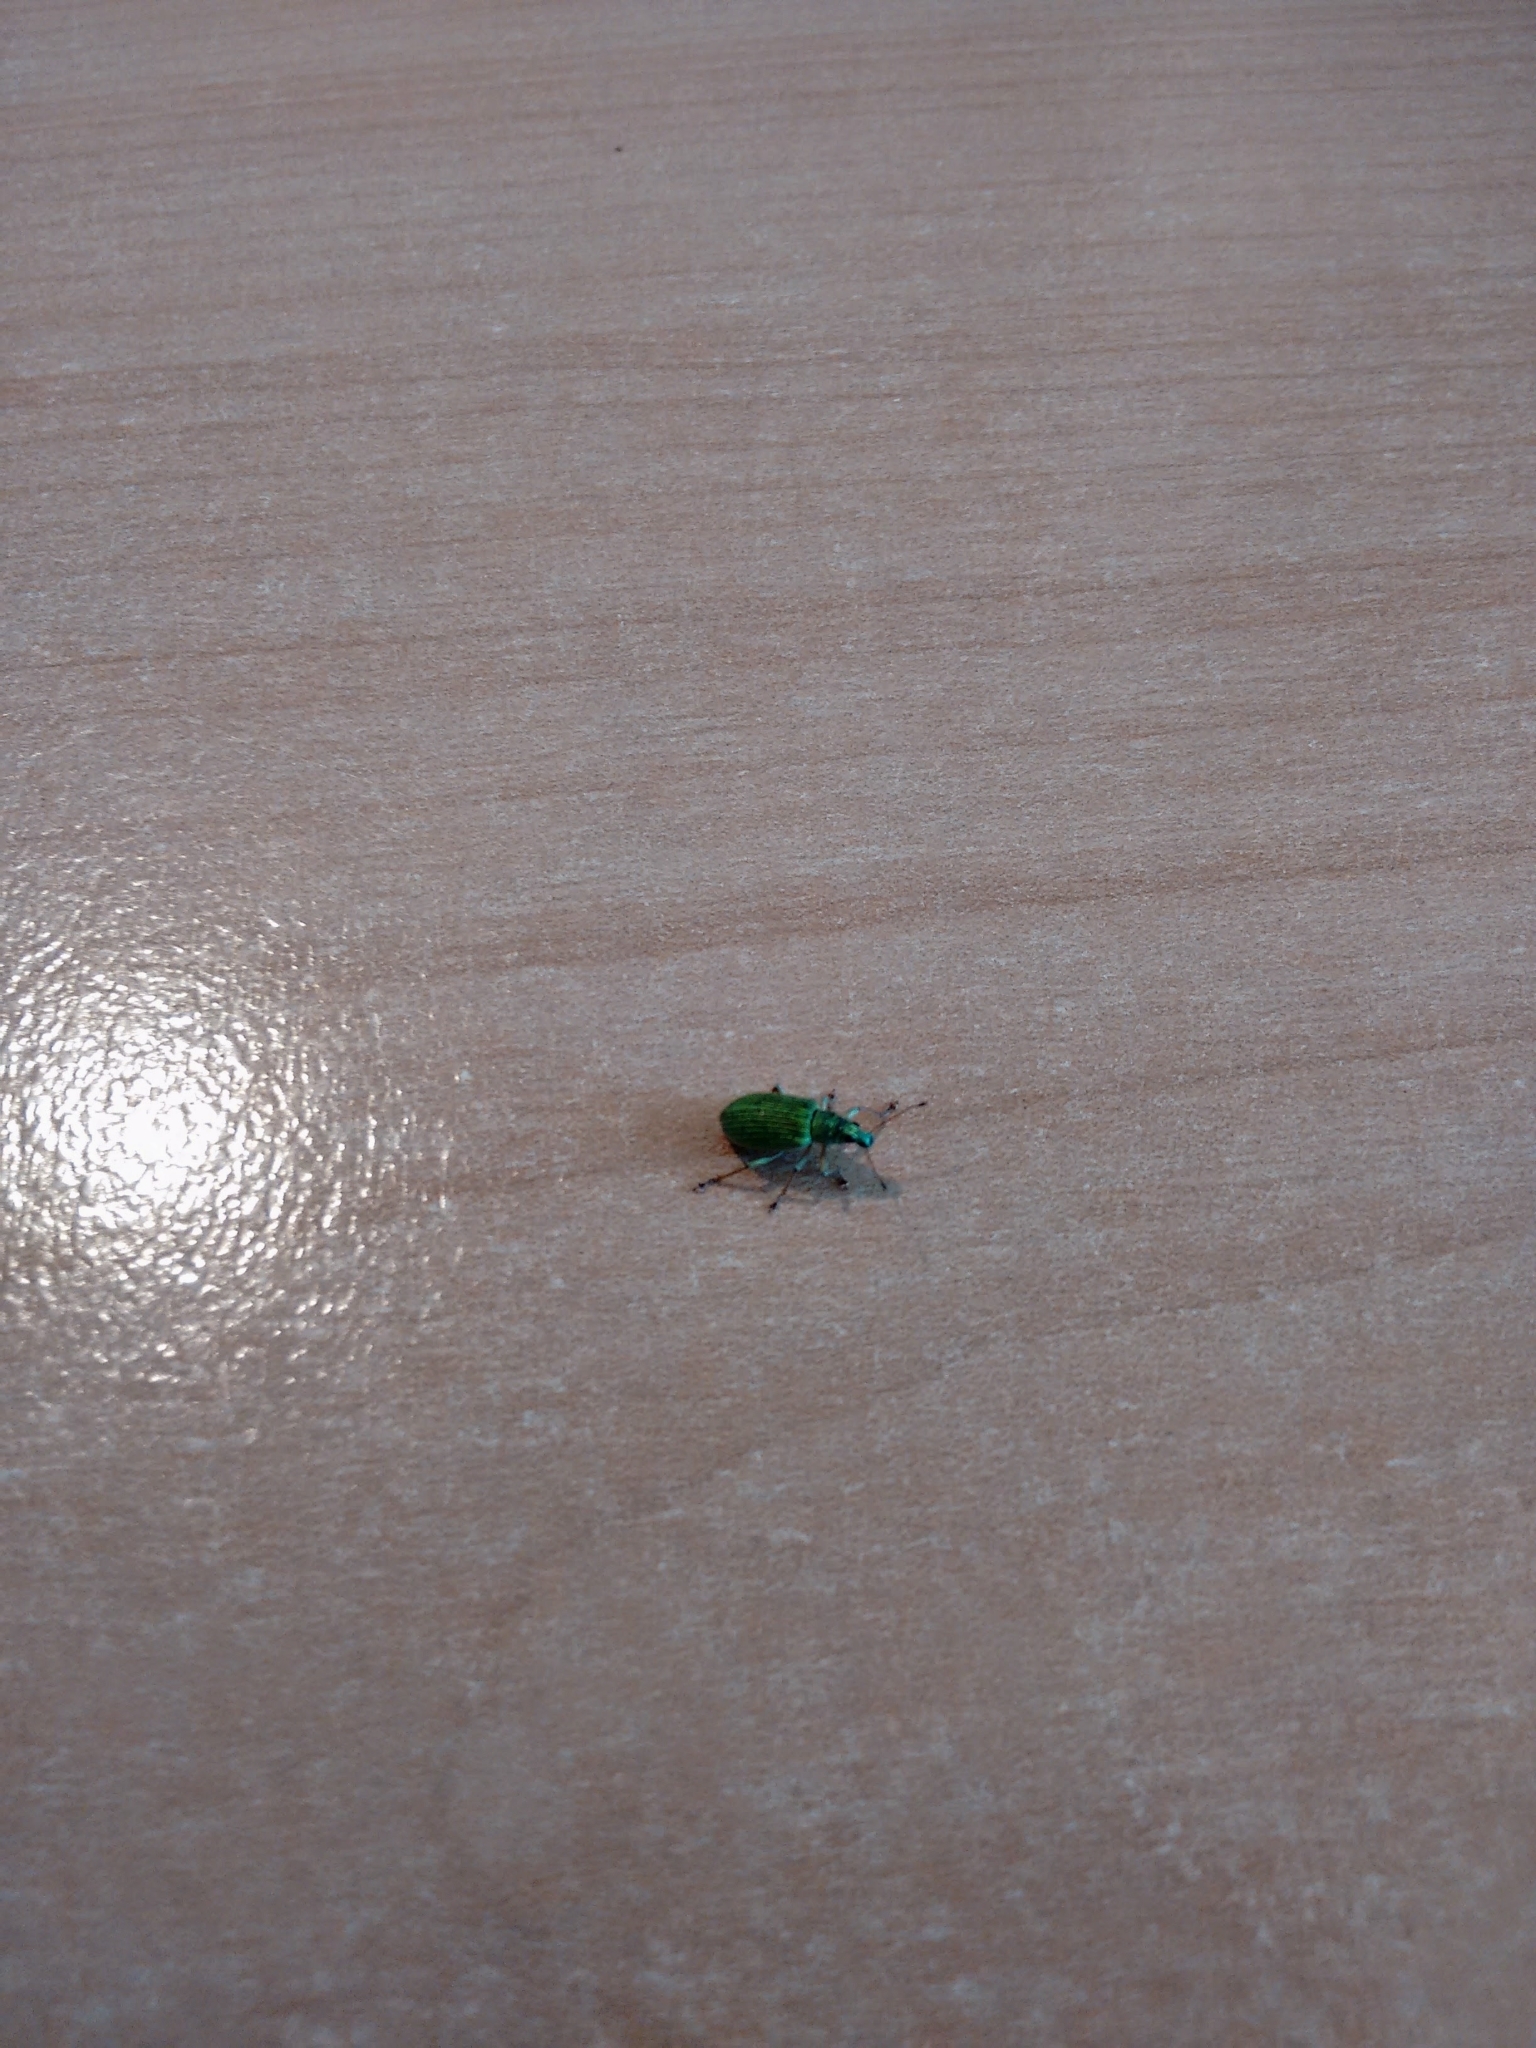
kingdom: Animalia
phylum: Arthropoda
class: Insecta
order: Coleoptera
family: Curculionidae
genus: Polydrusus
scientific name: Polydrusus formosus
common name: Weevil
